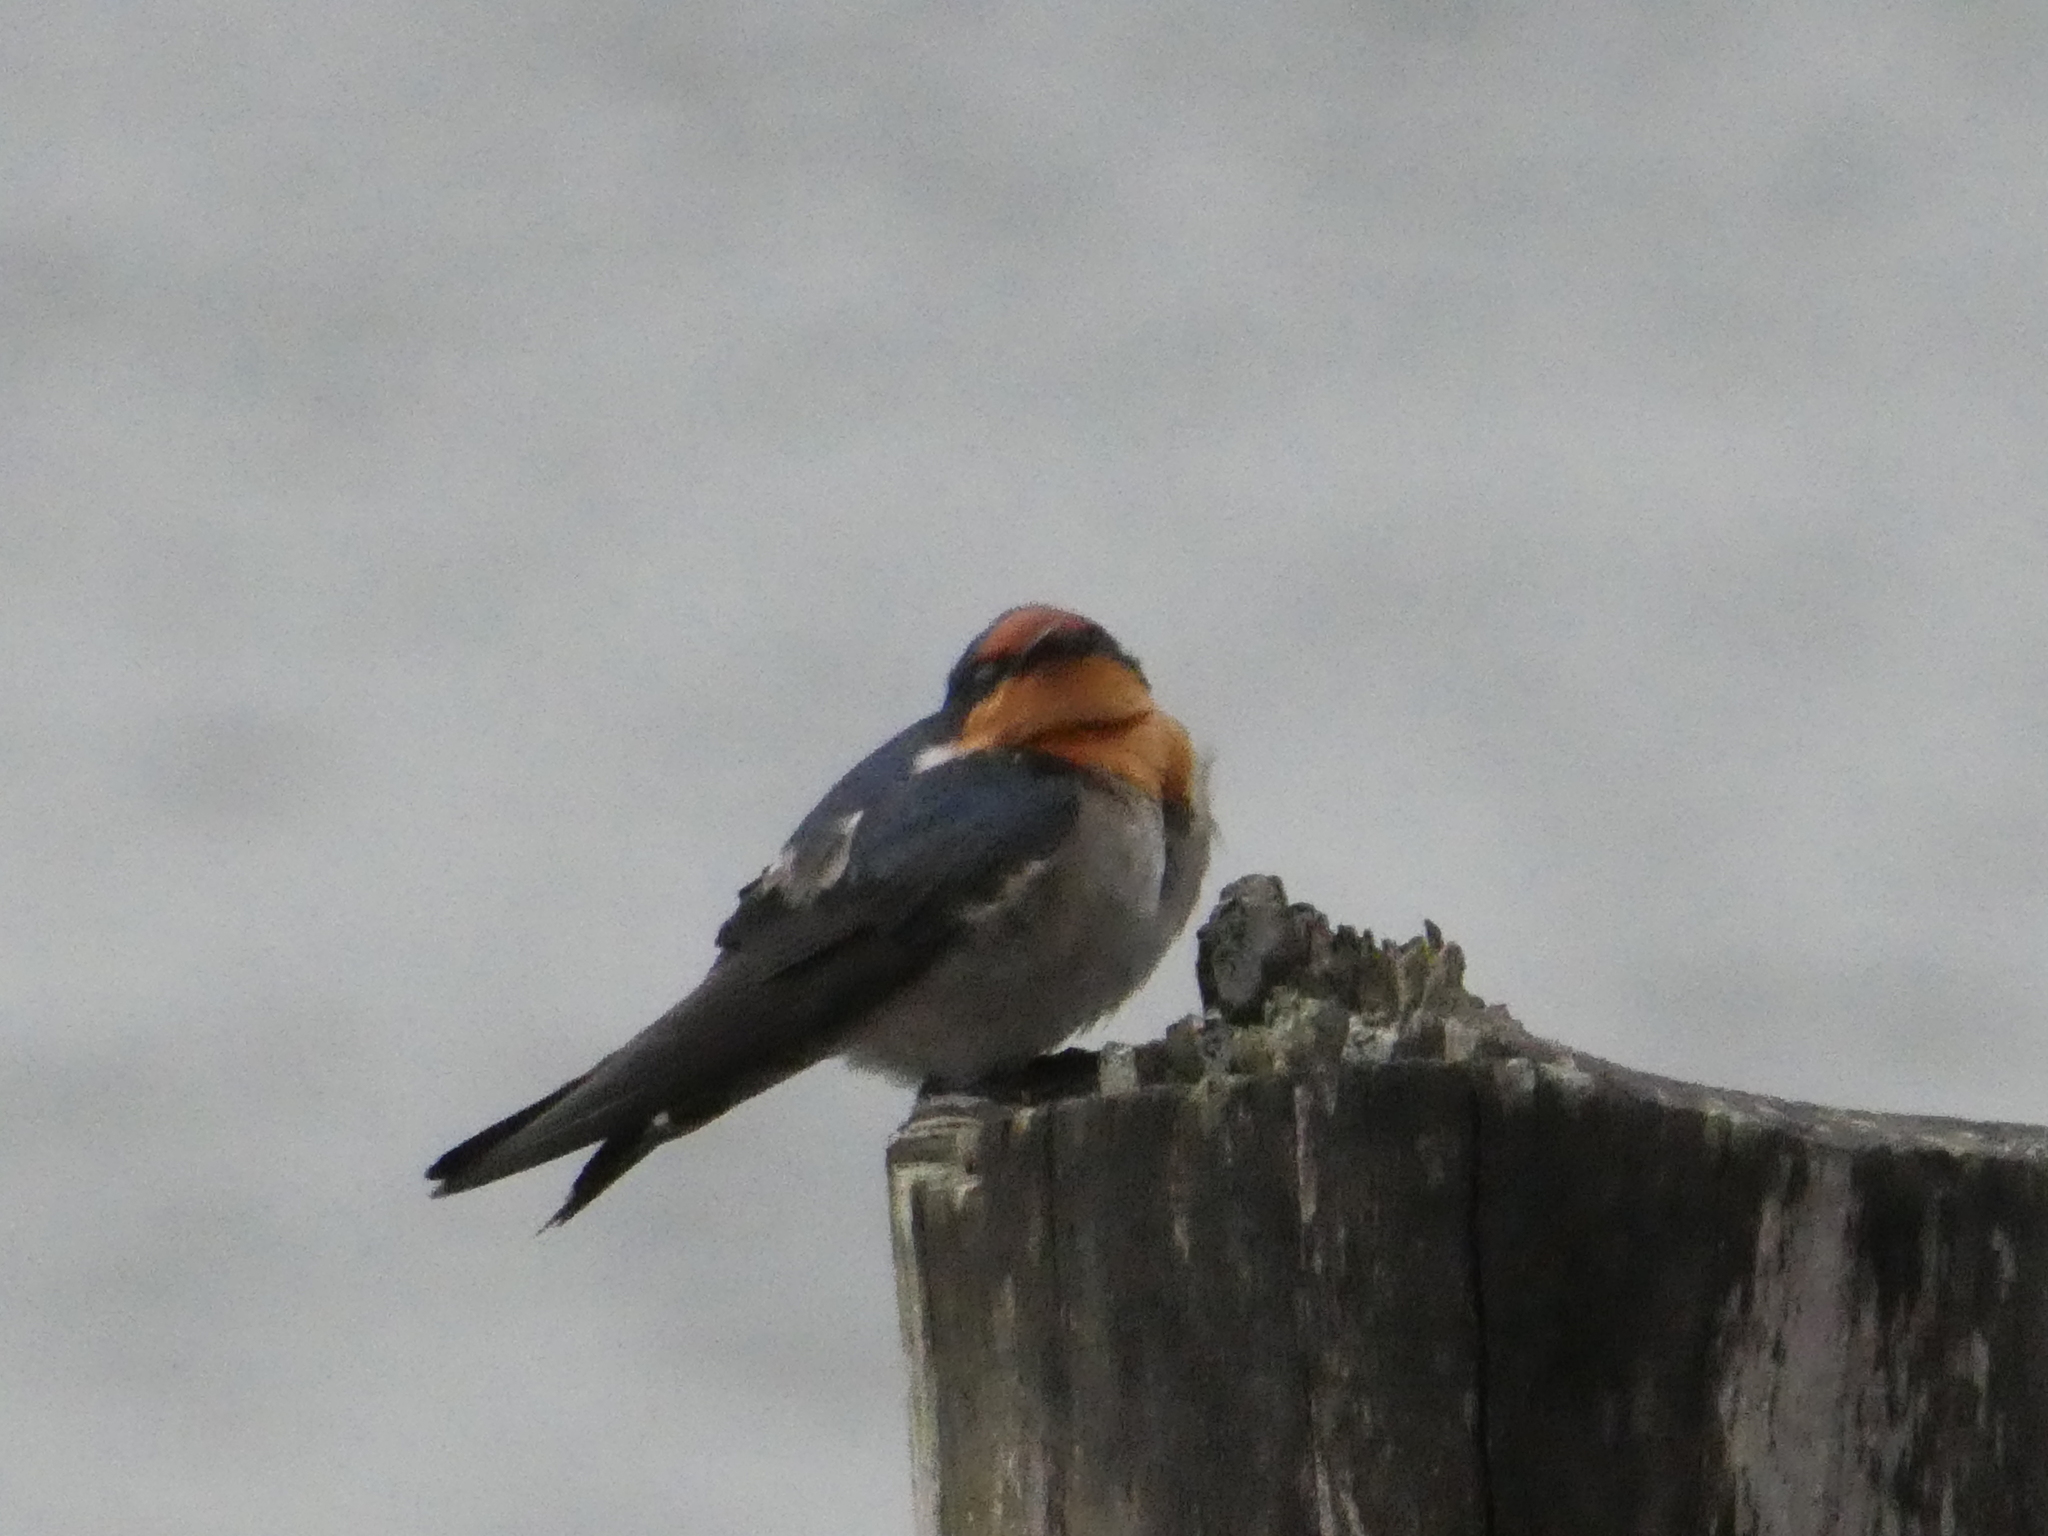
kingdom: Animalia
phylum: Chordata
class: Aves
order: Passeriformes
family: Hirundinidae
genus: Hirundo
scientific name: Hirundo tahitica
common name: Pacific swallow
